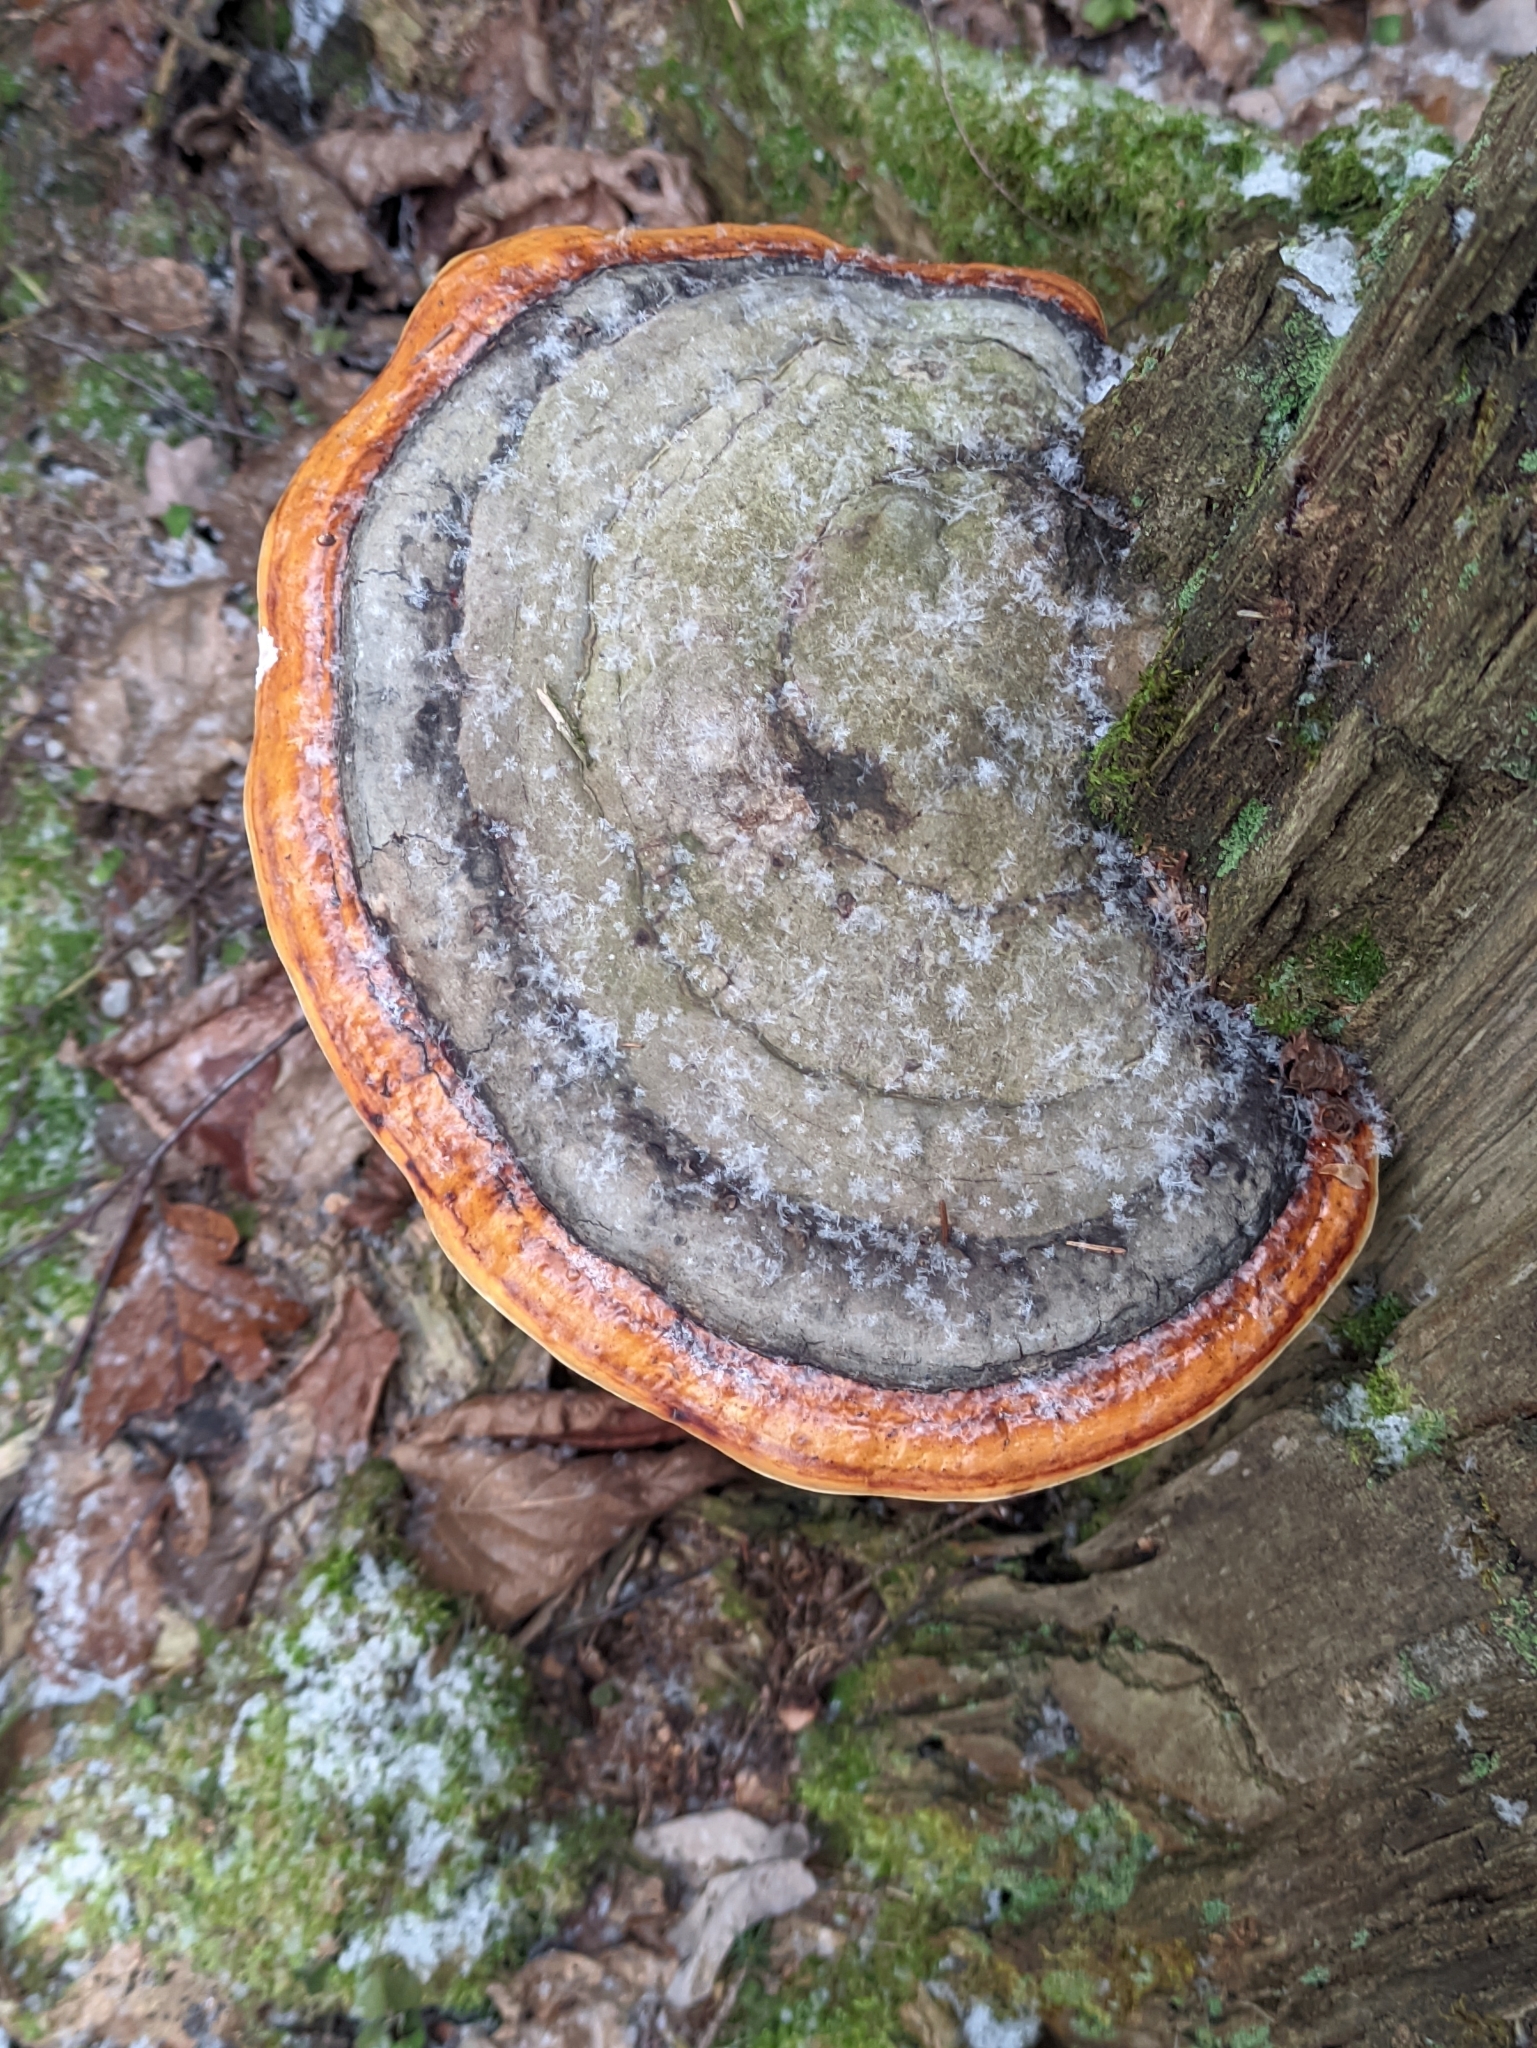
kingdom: Fungi
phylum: Basidiomycota
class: Agaricomycetes
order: Polyporales
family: Fomitopsidaceae
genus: Fomitopsis
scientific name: Fomitopsis pinicola
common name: Red-belted bracket
